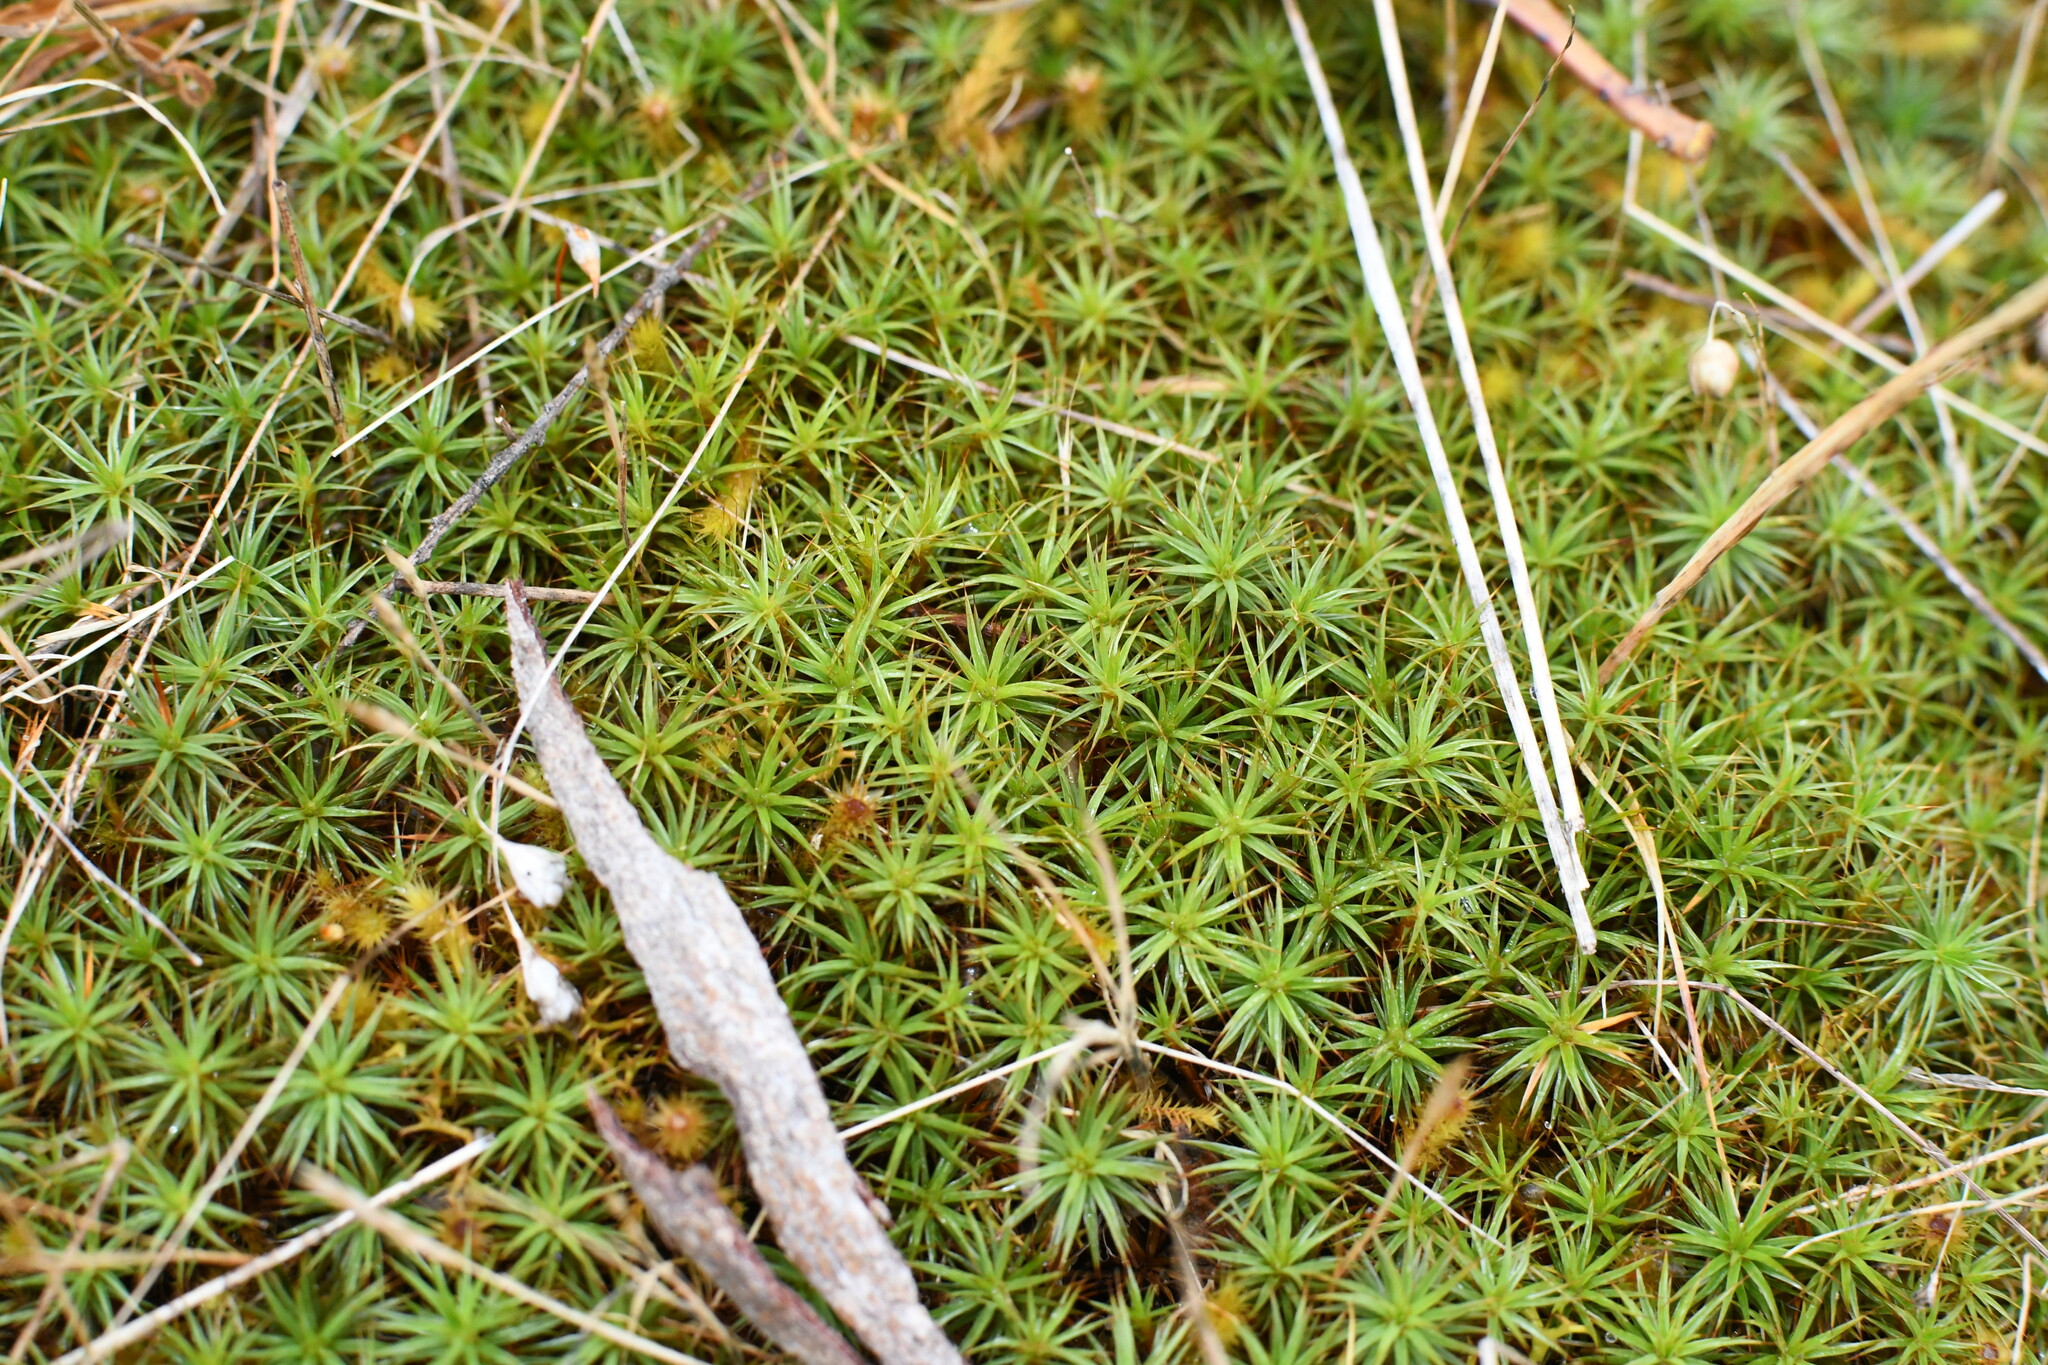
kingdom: Plantae
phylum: Bryophyta
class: Polytrichopsida
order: Polytrichales
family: Polytrichaceae
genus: Polytrichum
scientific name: Polytrichum juniperinum
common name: Juniper haircap moss
